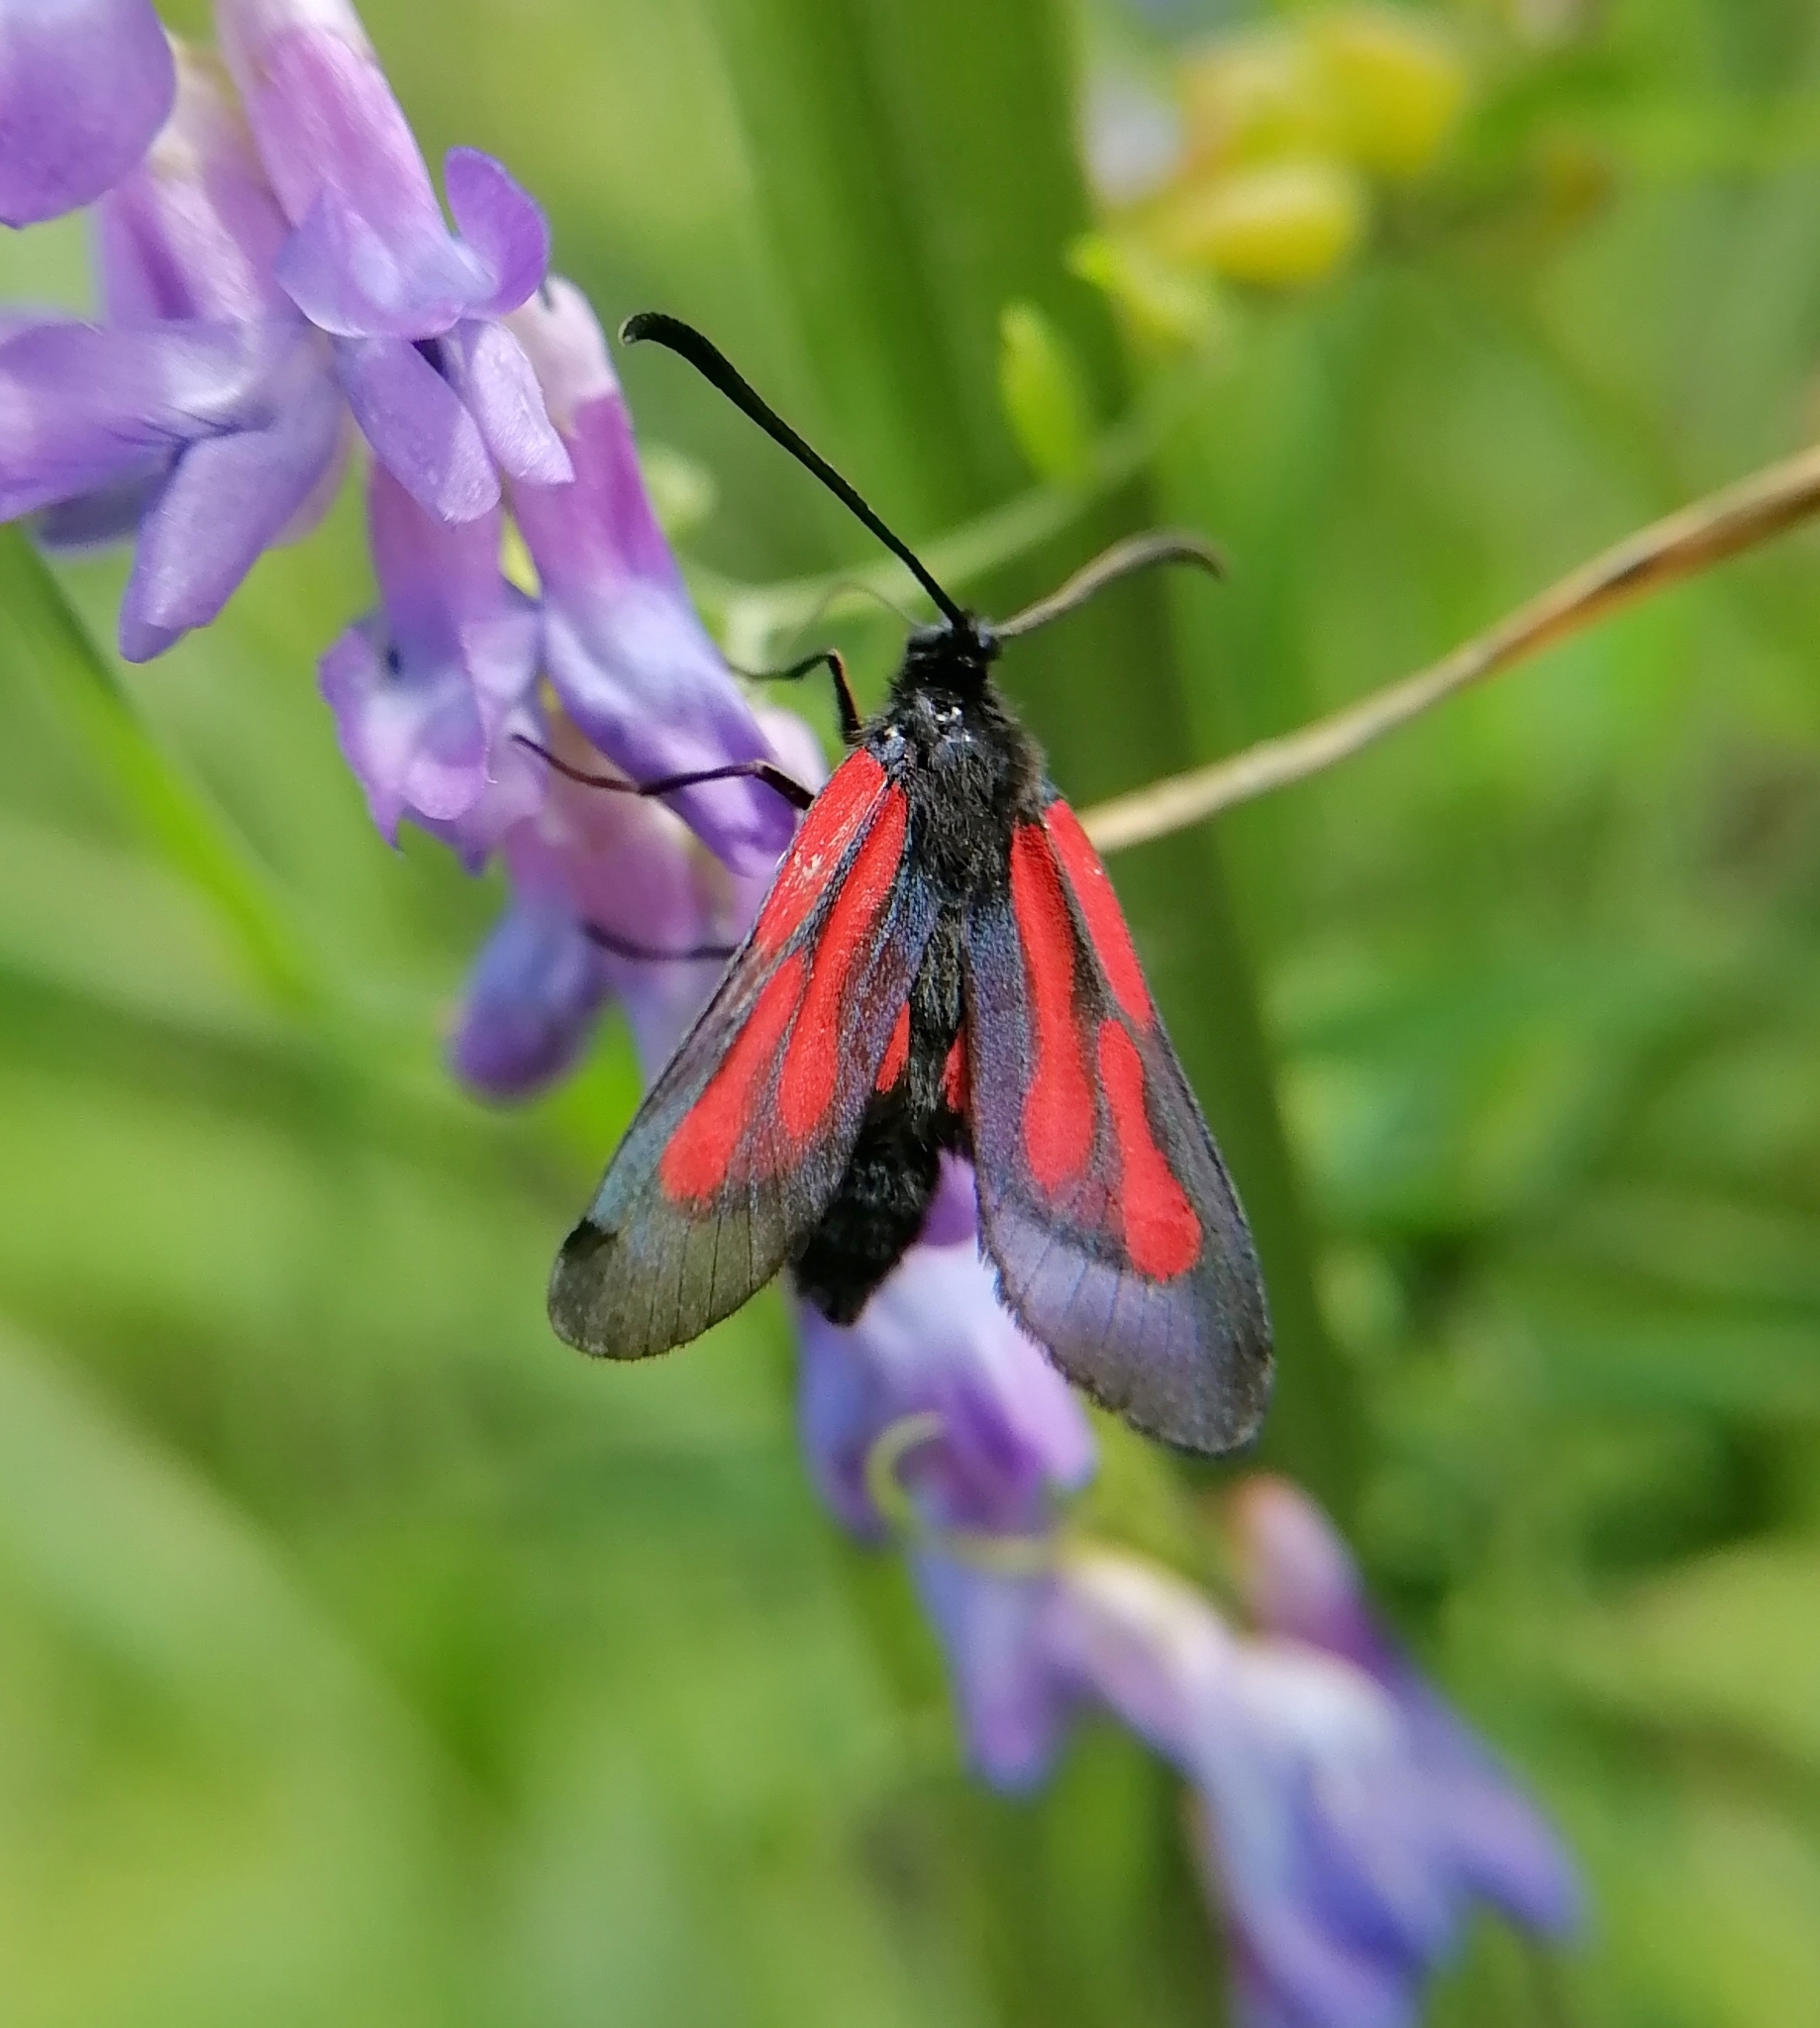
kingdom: Animalia
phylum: Arthropoda
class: Insecta
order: Lepidoptera
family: Zygaenidae
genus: Zygaena
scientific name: Zygaena osterodensis
